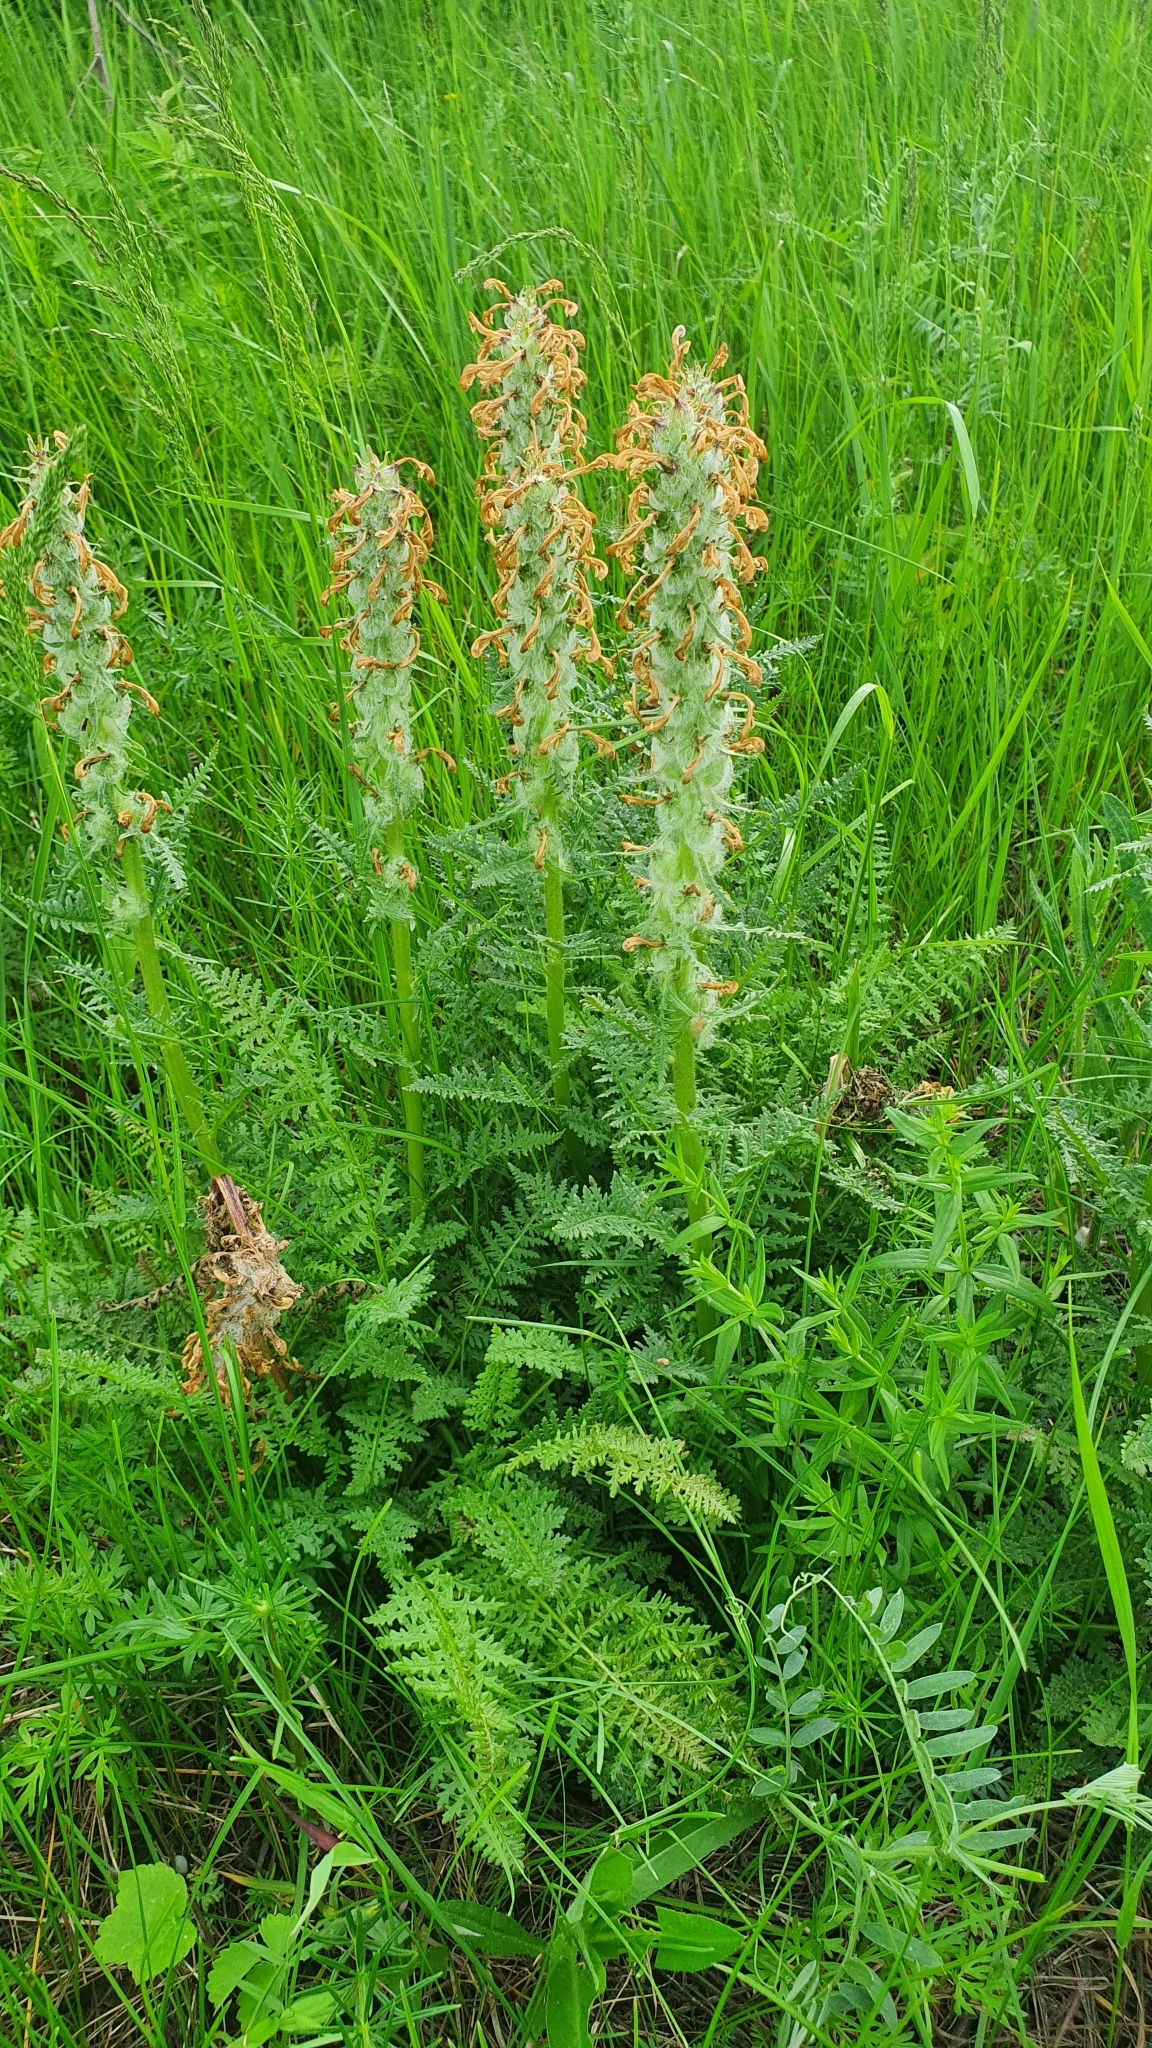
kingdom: Plantae
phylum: Tracheophyta
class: Magnoliopsida
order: Lamiales
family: Orobanchaceae
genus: Pedicularis
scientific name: Pedicularis dasystachys
